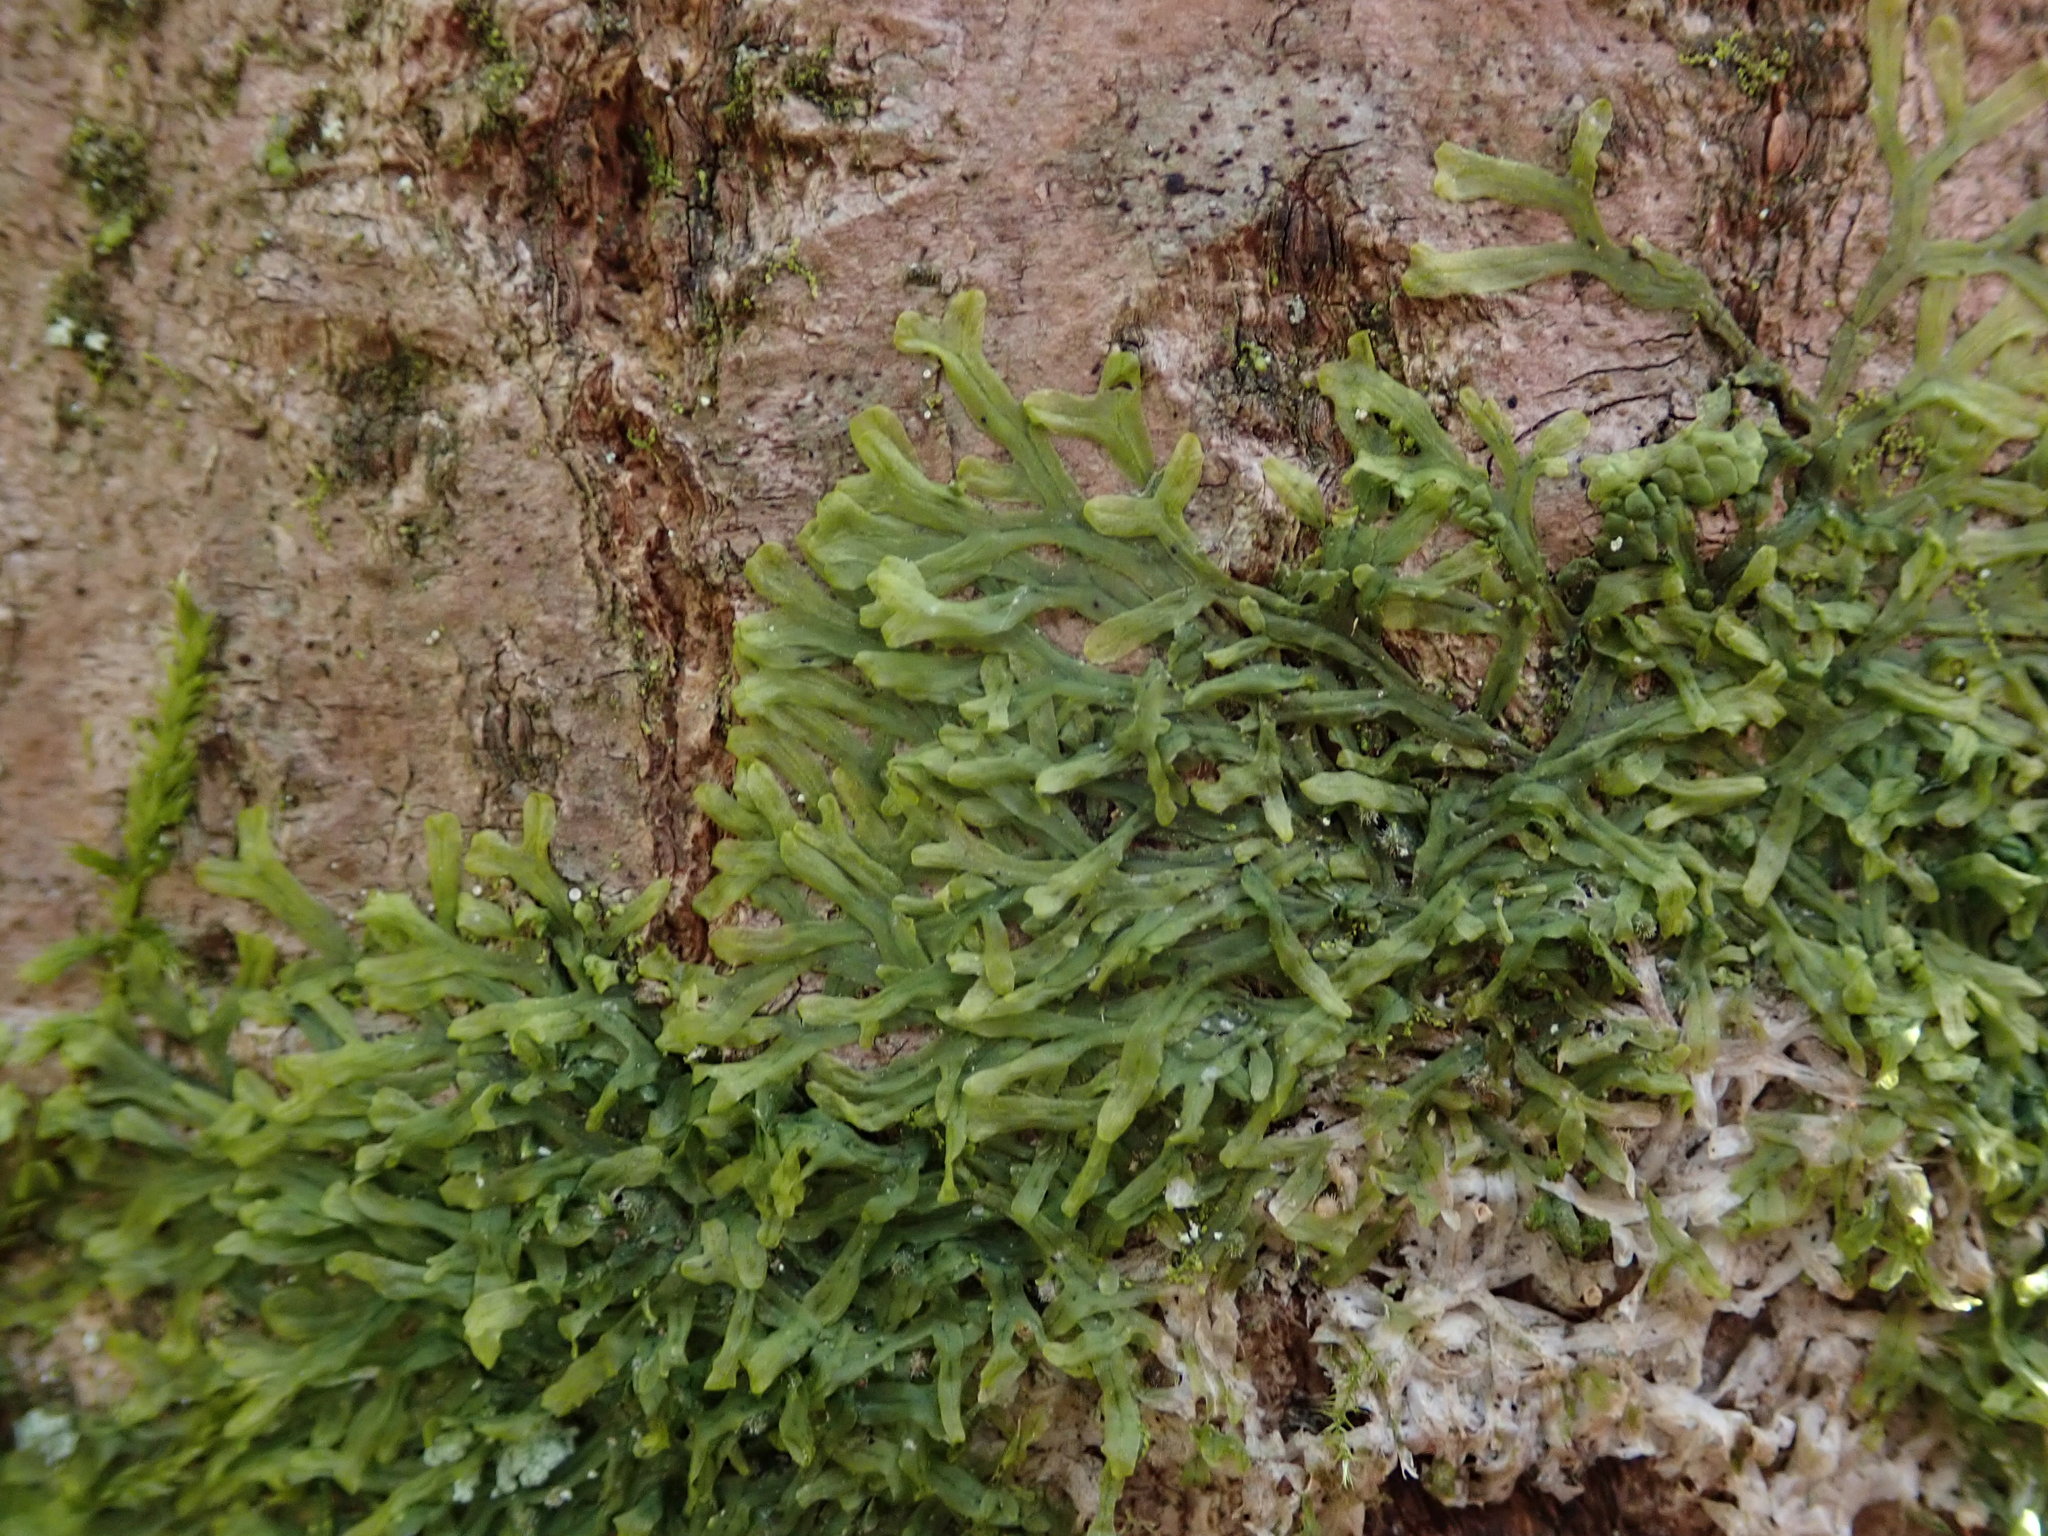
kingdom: Plantae
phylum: Marchantiophyta
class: Jungermanniopsida
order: Metzgeriales
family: Metzgeriaceae
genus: Metzgeria
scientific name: Metzgeria furcata
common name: Forked veilwort
